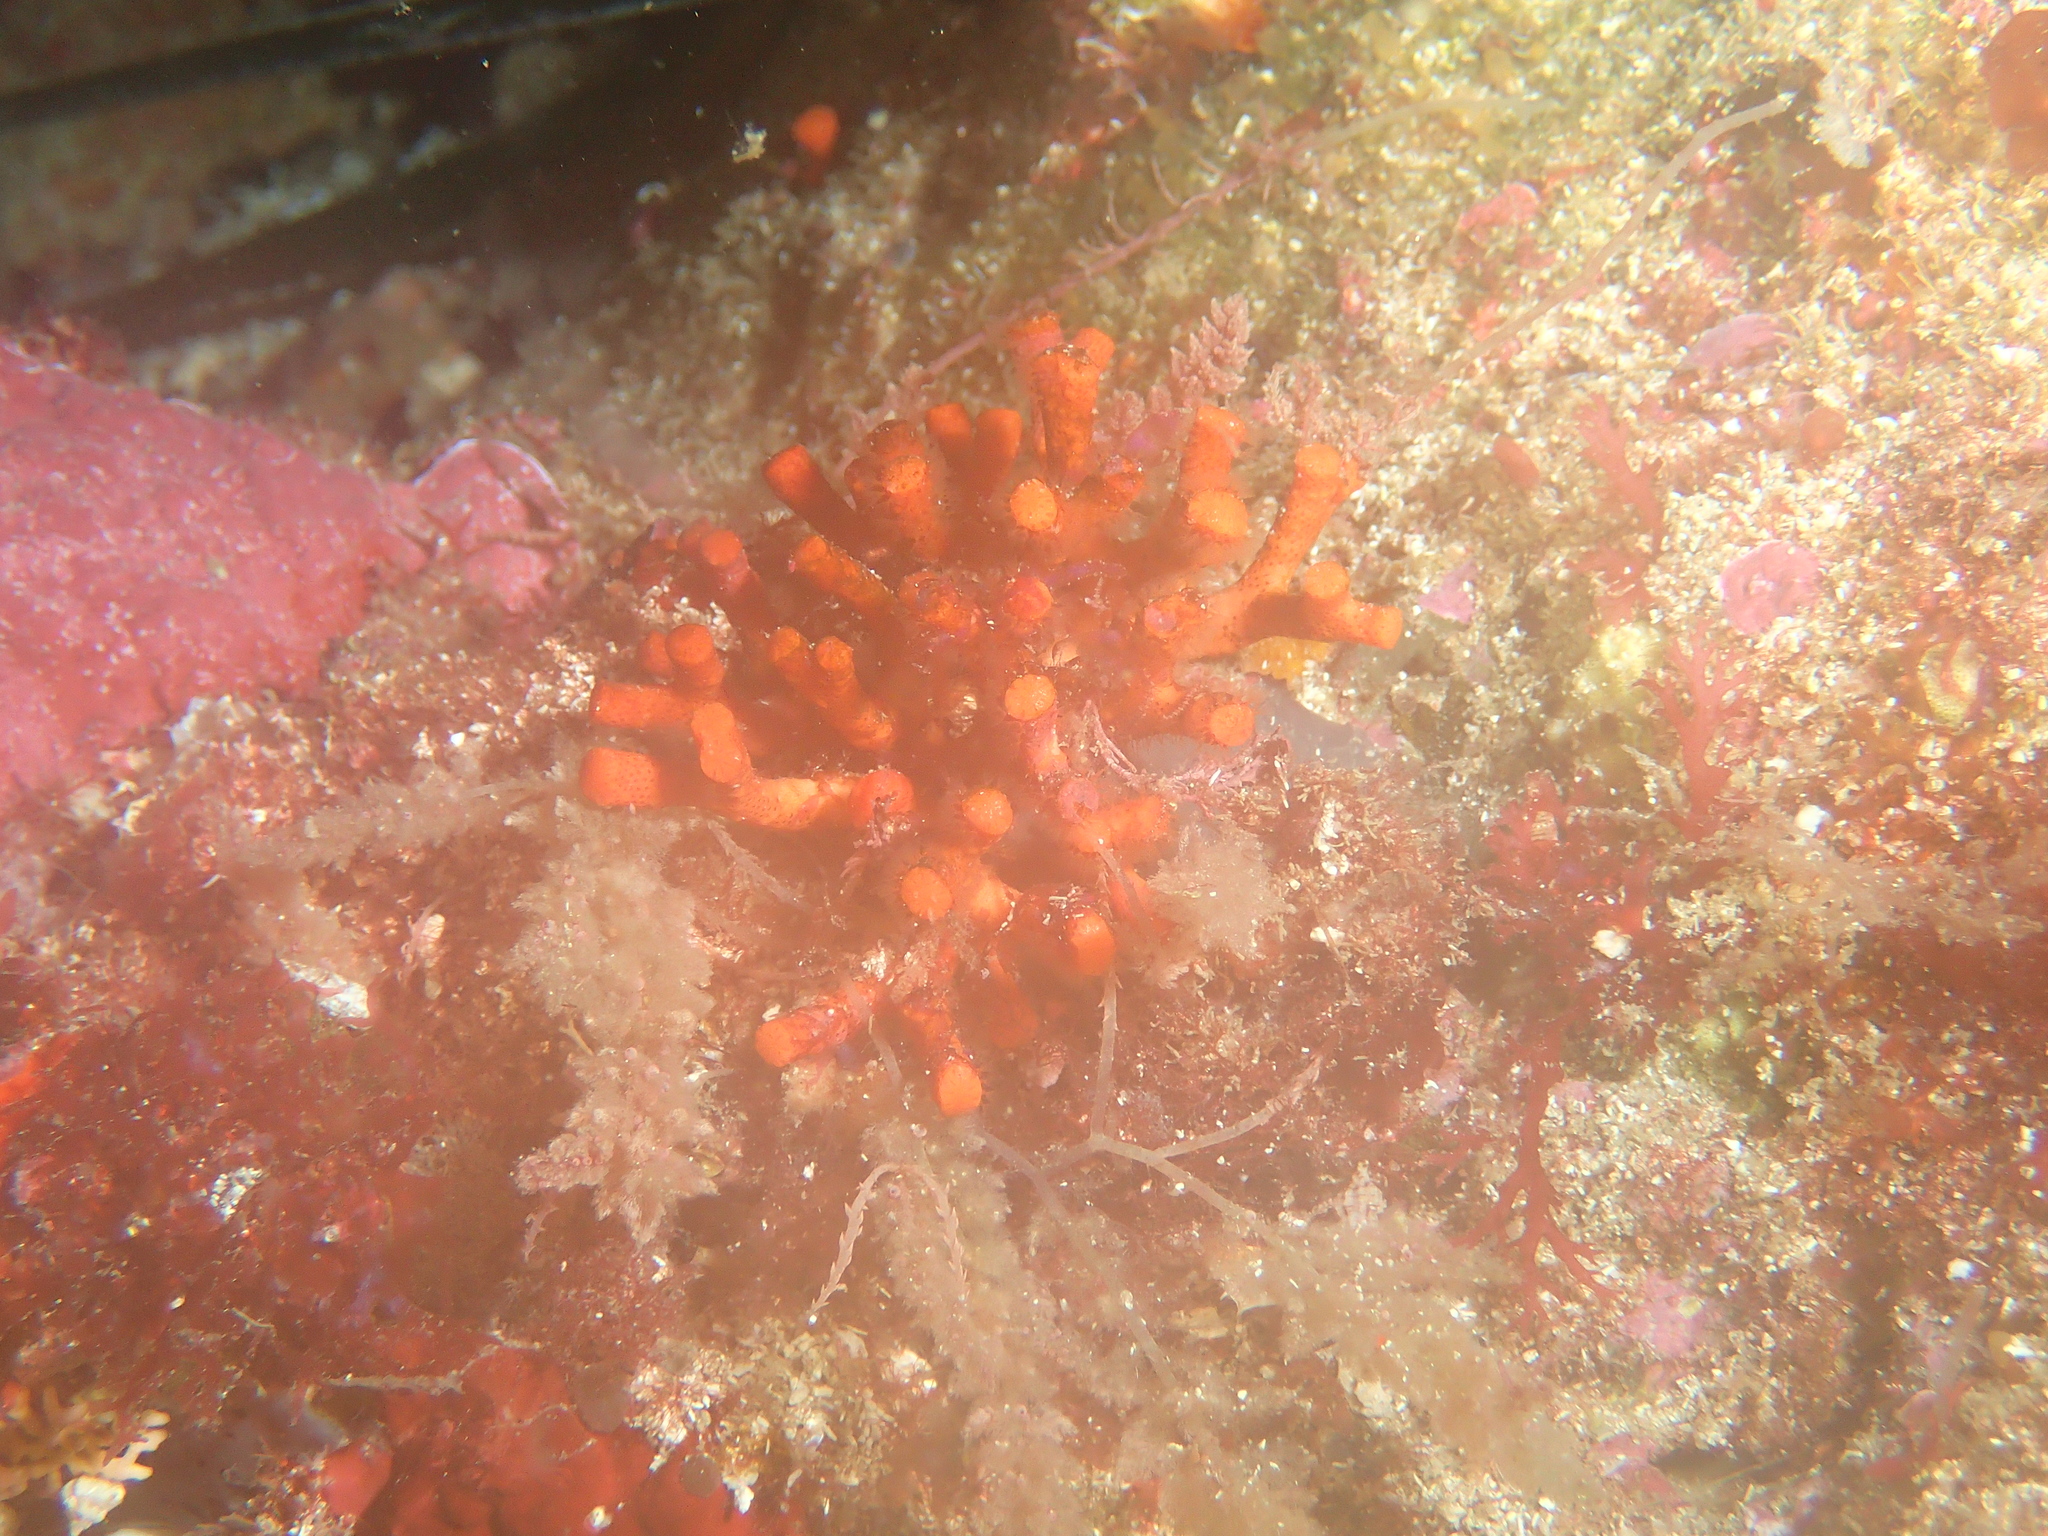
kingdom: Animalia
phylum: Bryozoa
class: Gymnolaemata
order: Cheilostomatida
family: Myriaporidae
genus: Myriapora
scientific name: Myriapora truncata
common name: False coral
